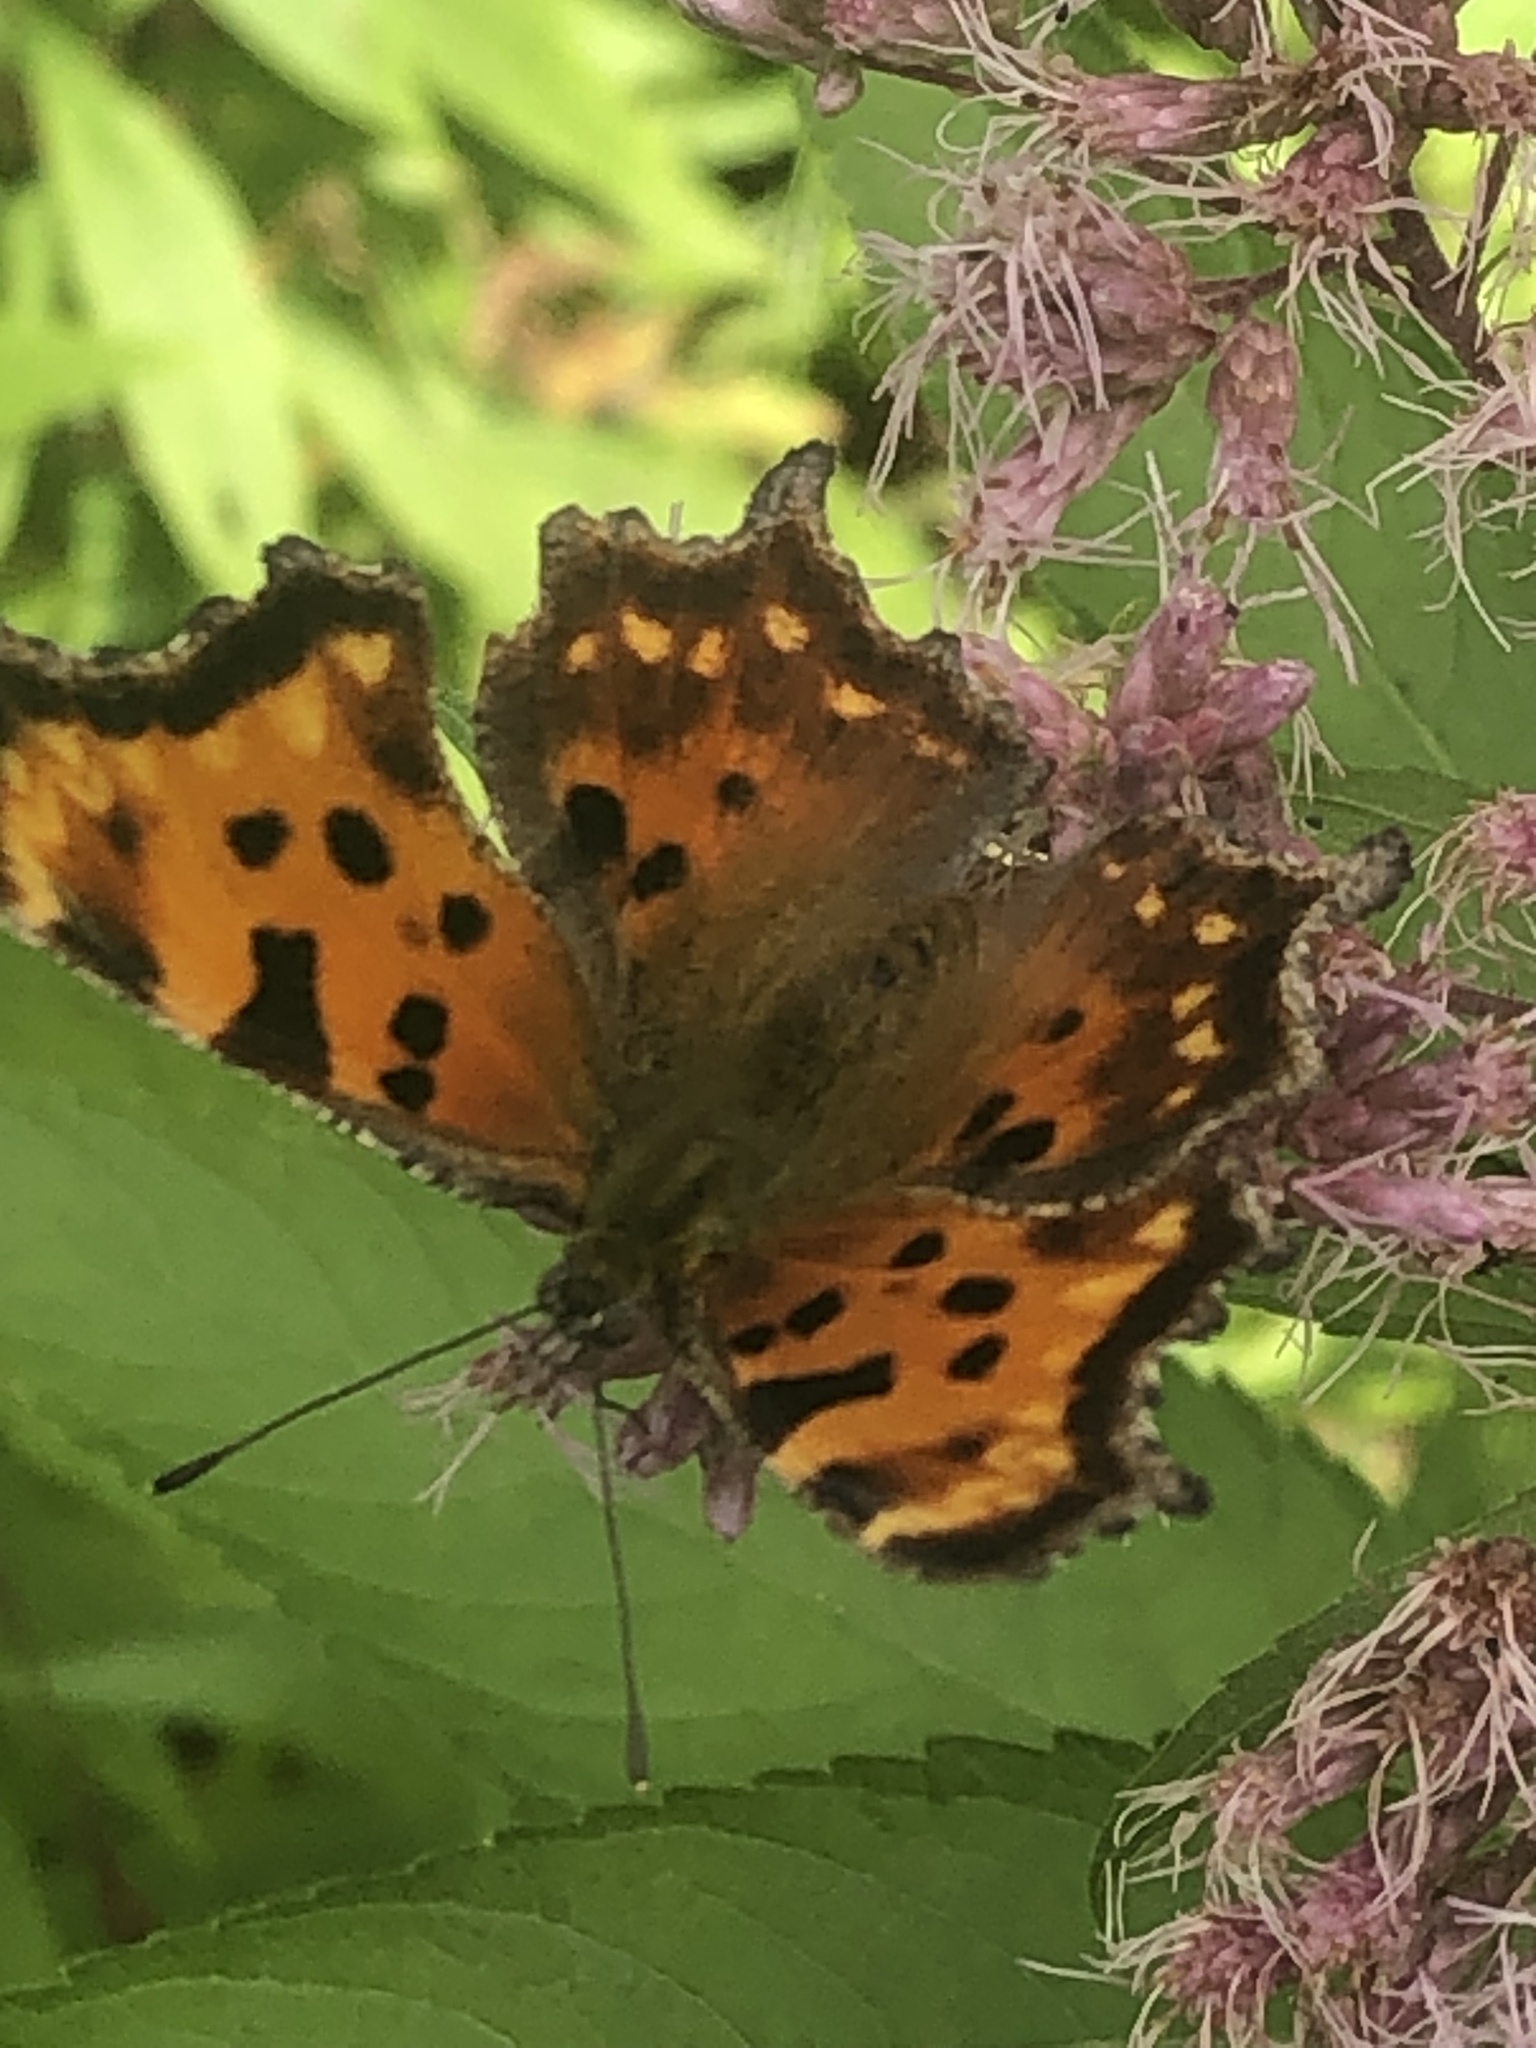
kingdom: Animalia
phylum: Arthropoda
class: Insecta
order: Lepidoptera
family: Nymphalidae
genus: Polygonia
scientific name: Polygonia faunus
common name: Green comma
